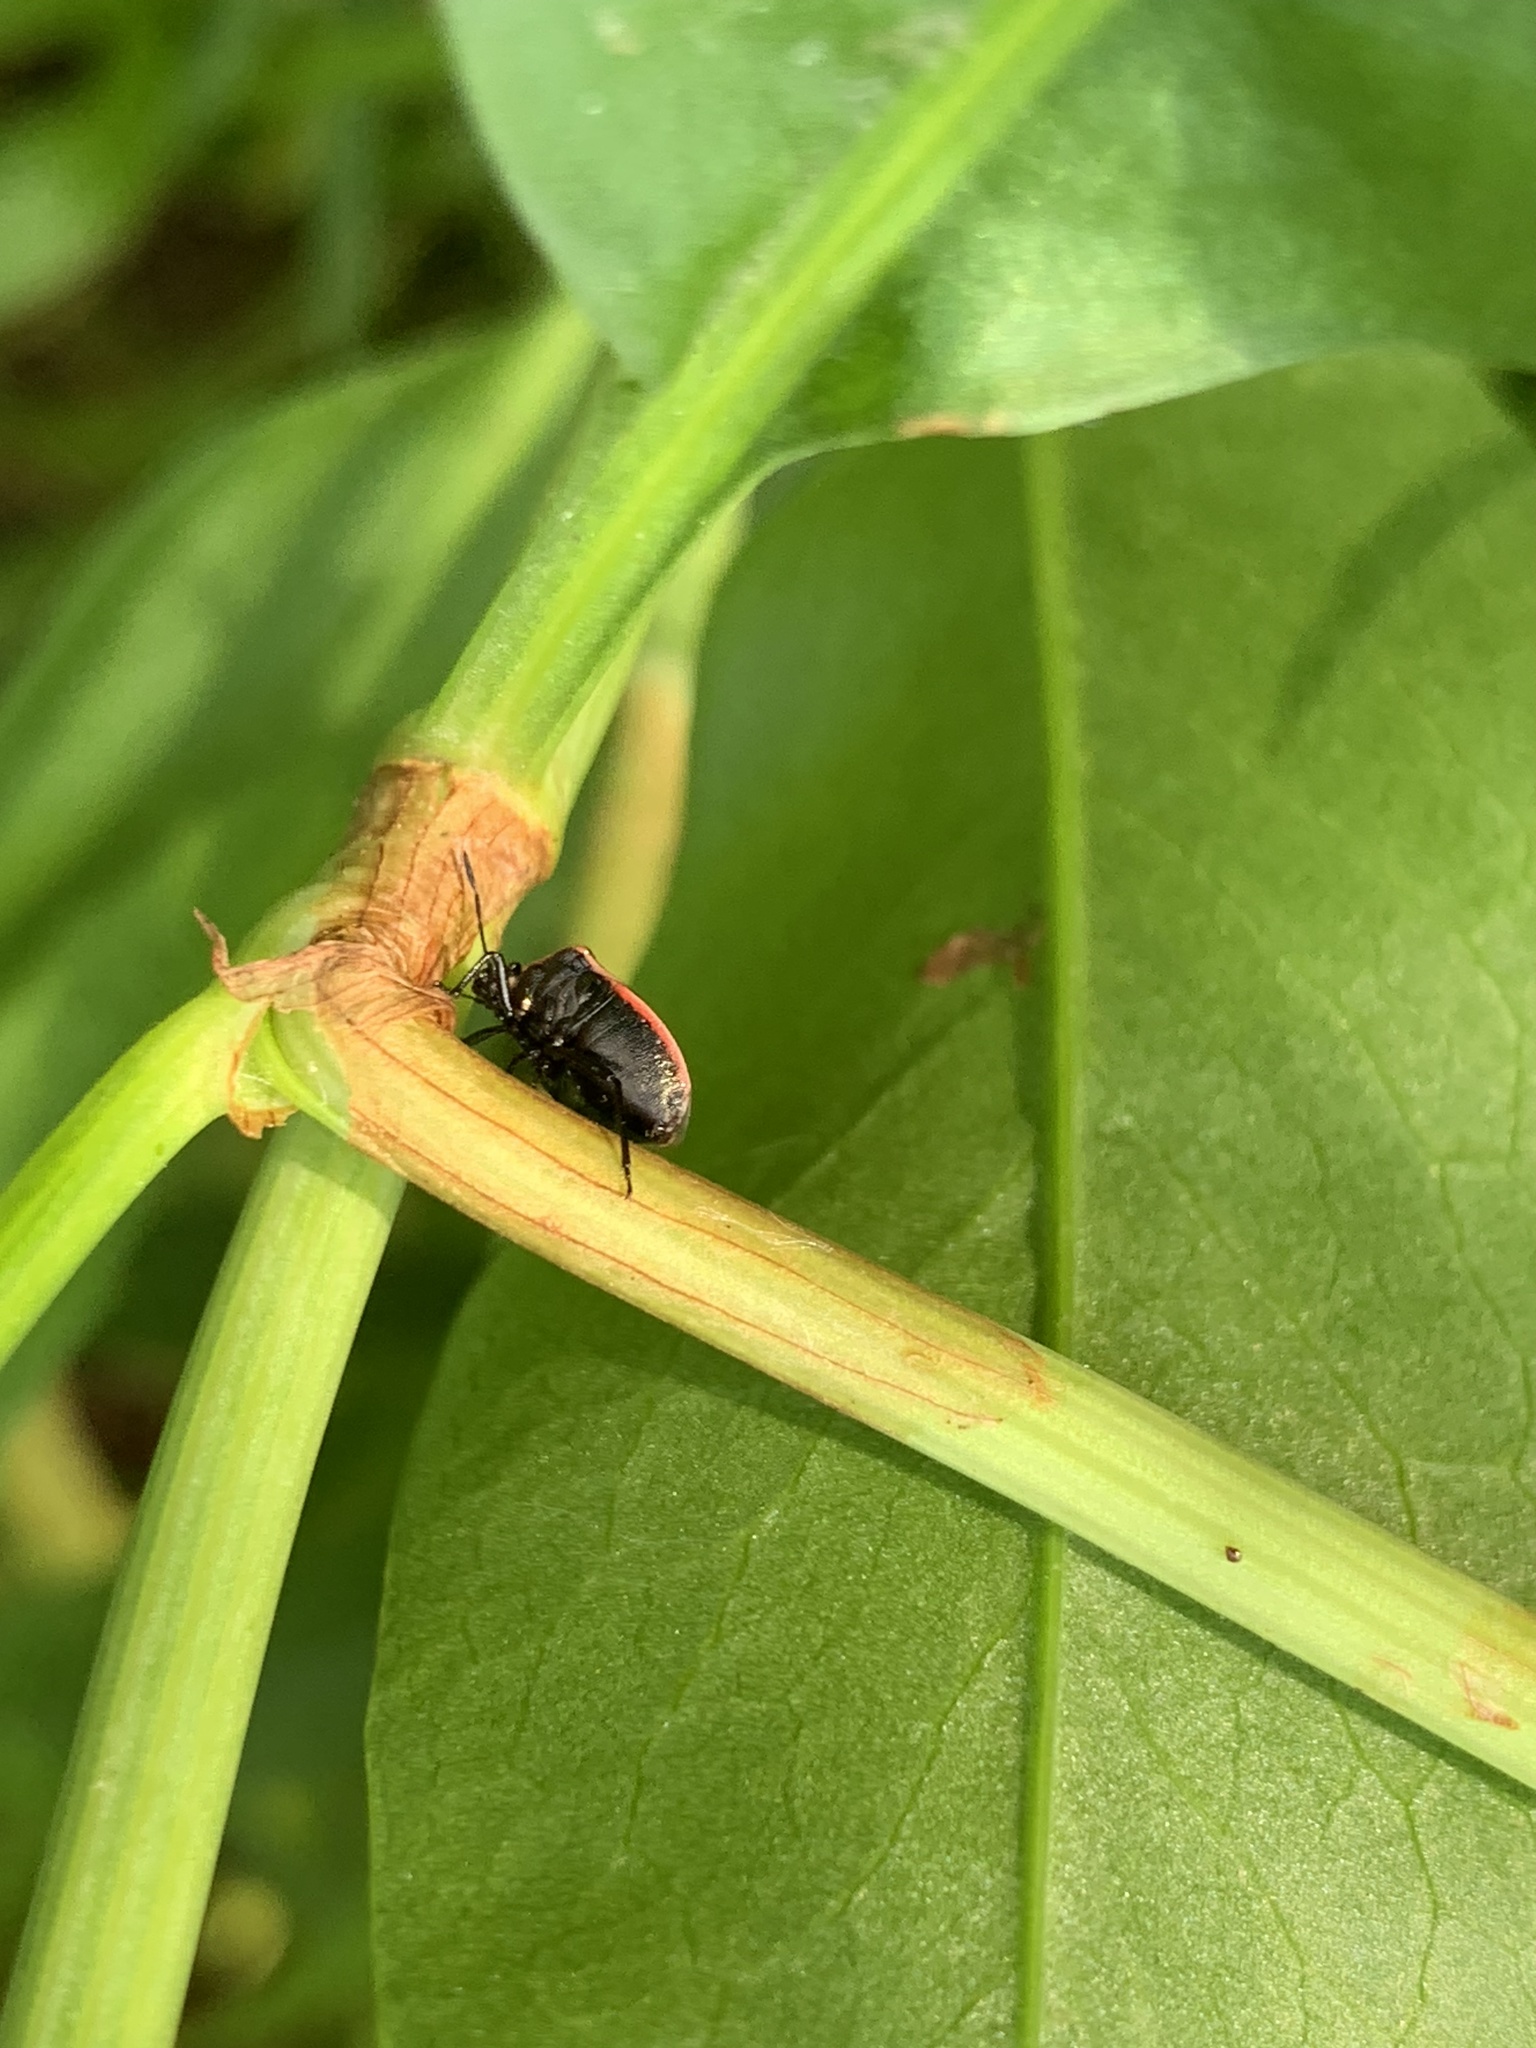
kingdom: Animalia
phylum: Arthropoda
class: Insecta
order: Hemiptera
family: Pentatomidae
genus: Cosmopepla
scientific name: Cosmopepla lintneriana
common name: Twice-stabbed stink bug
